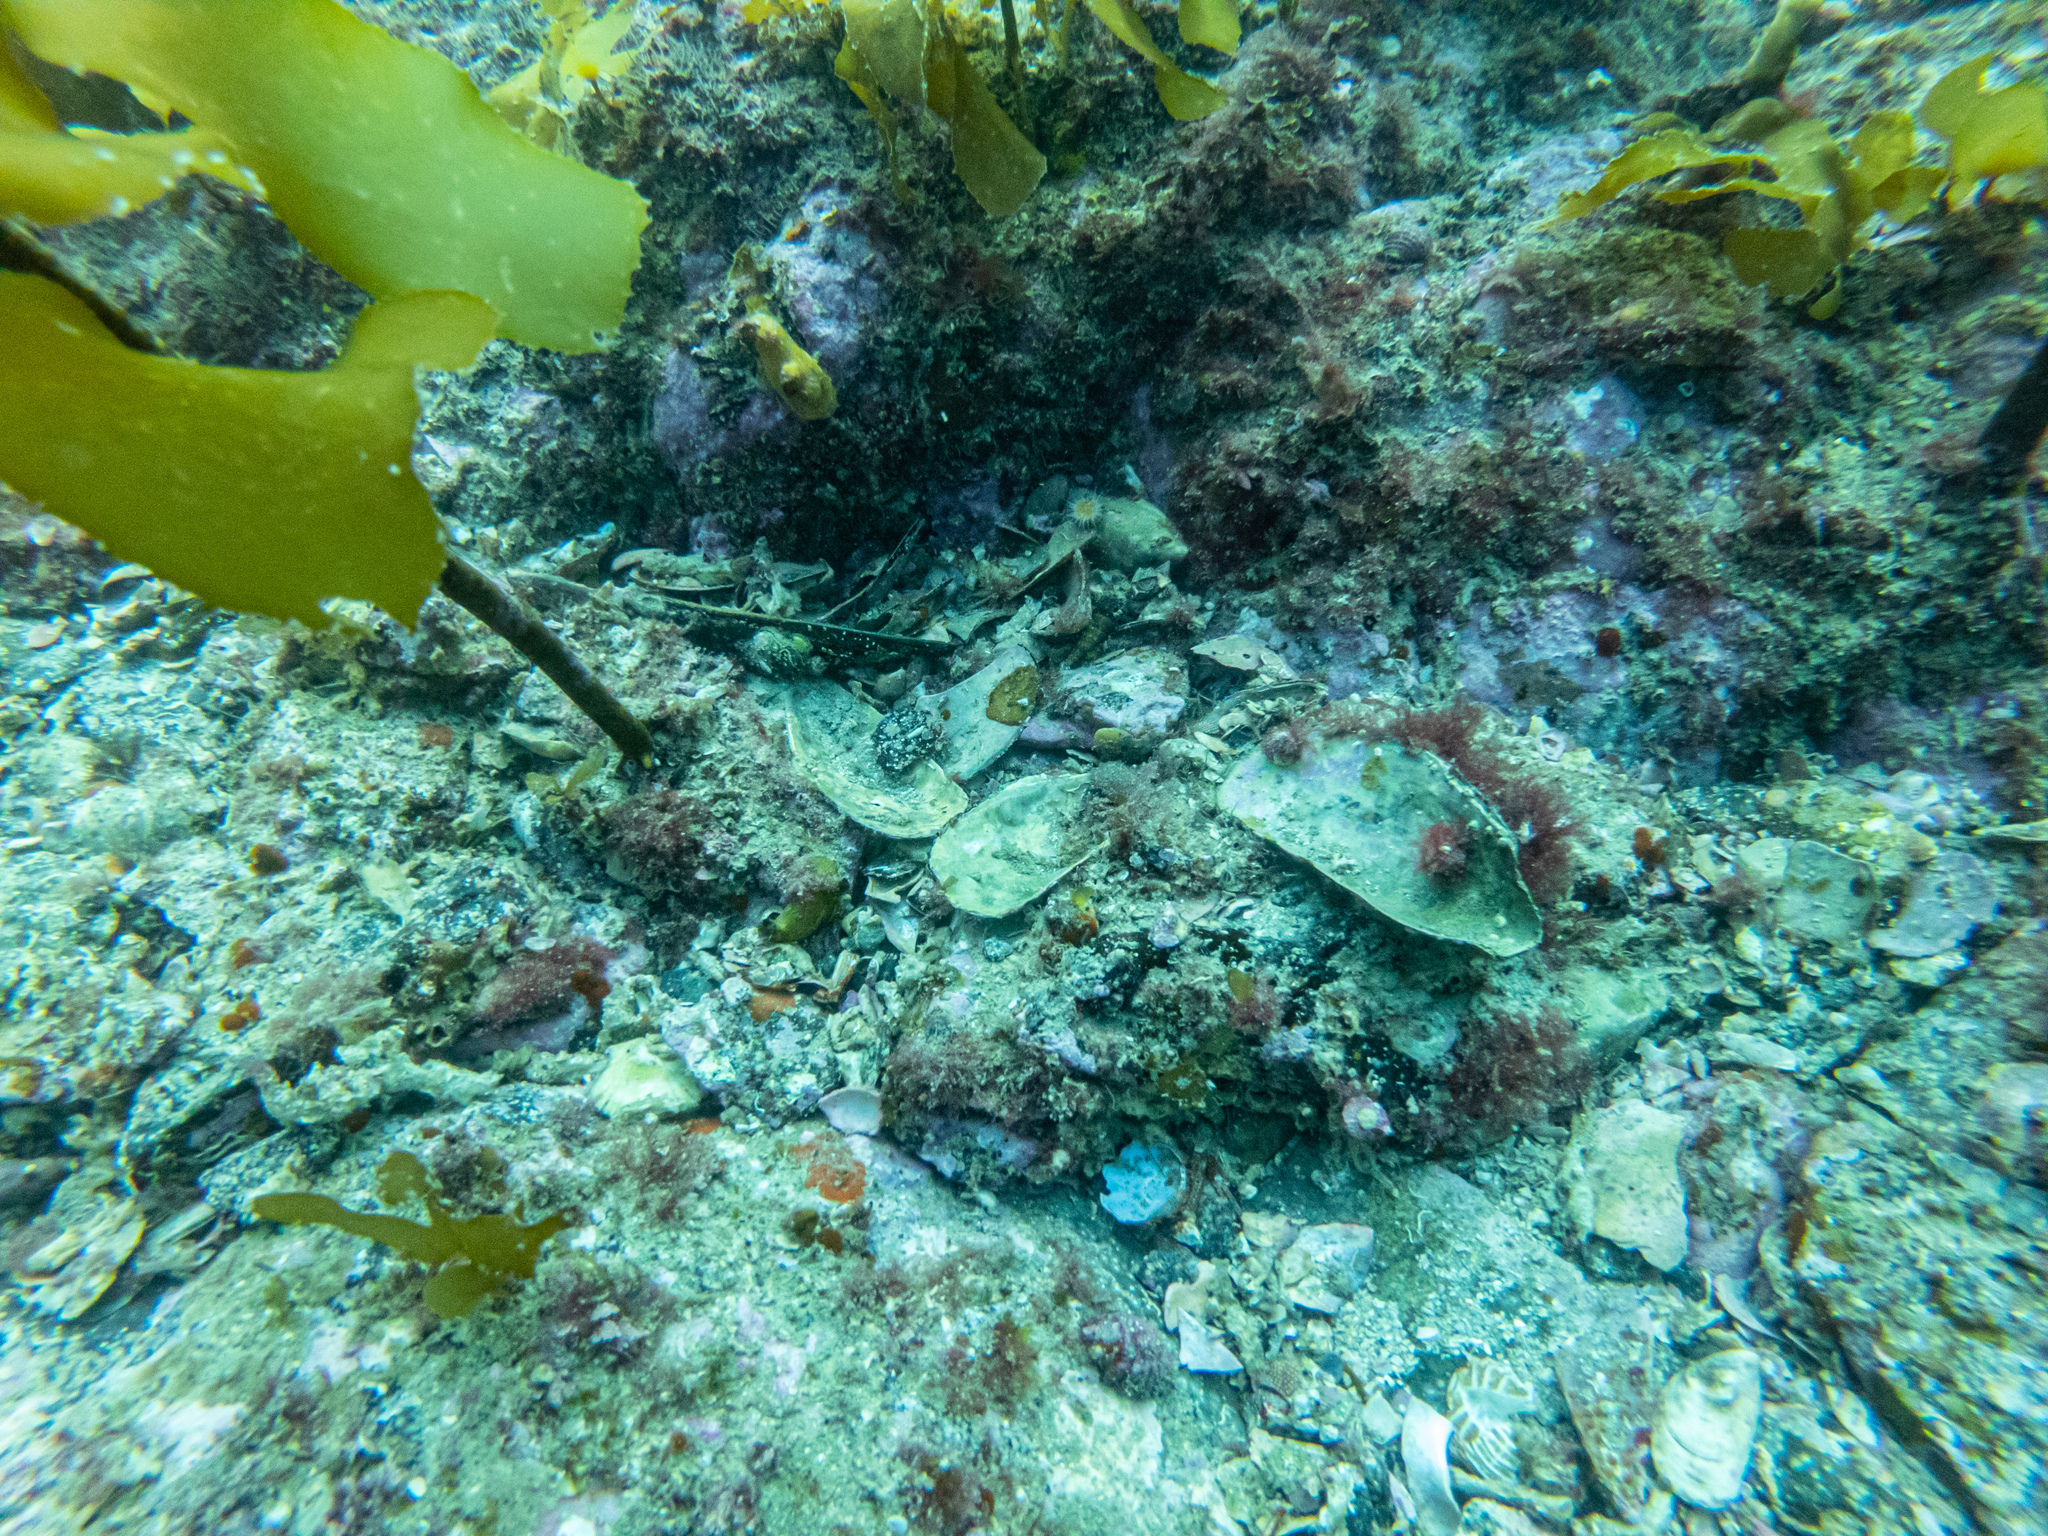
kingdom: Animalia
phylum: Mollusca
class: Bivalvia
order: Mytilida
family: Mytilidae
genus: Perna
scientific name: Perna canaliculus
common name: New zealand greenshelltm
